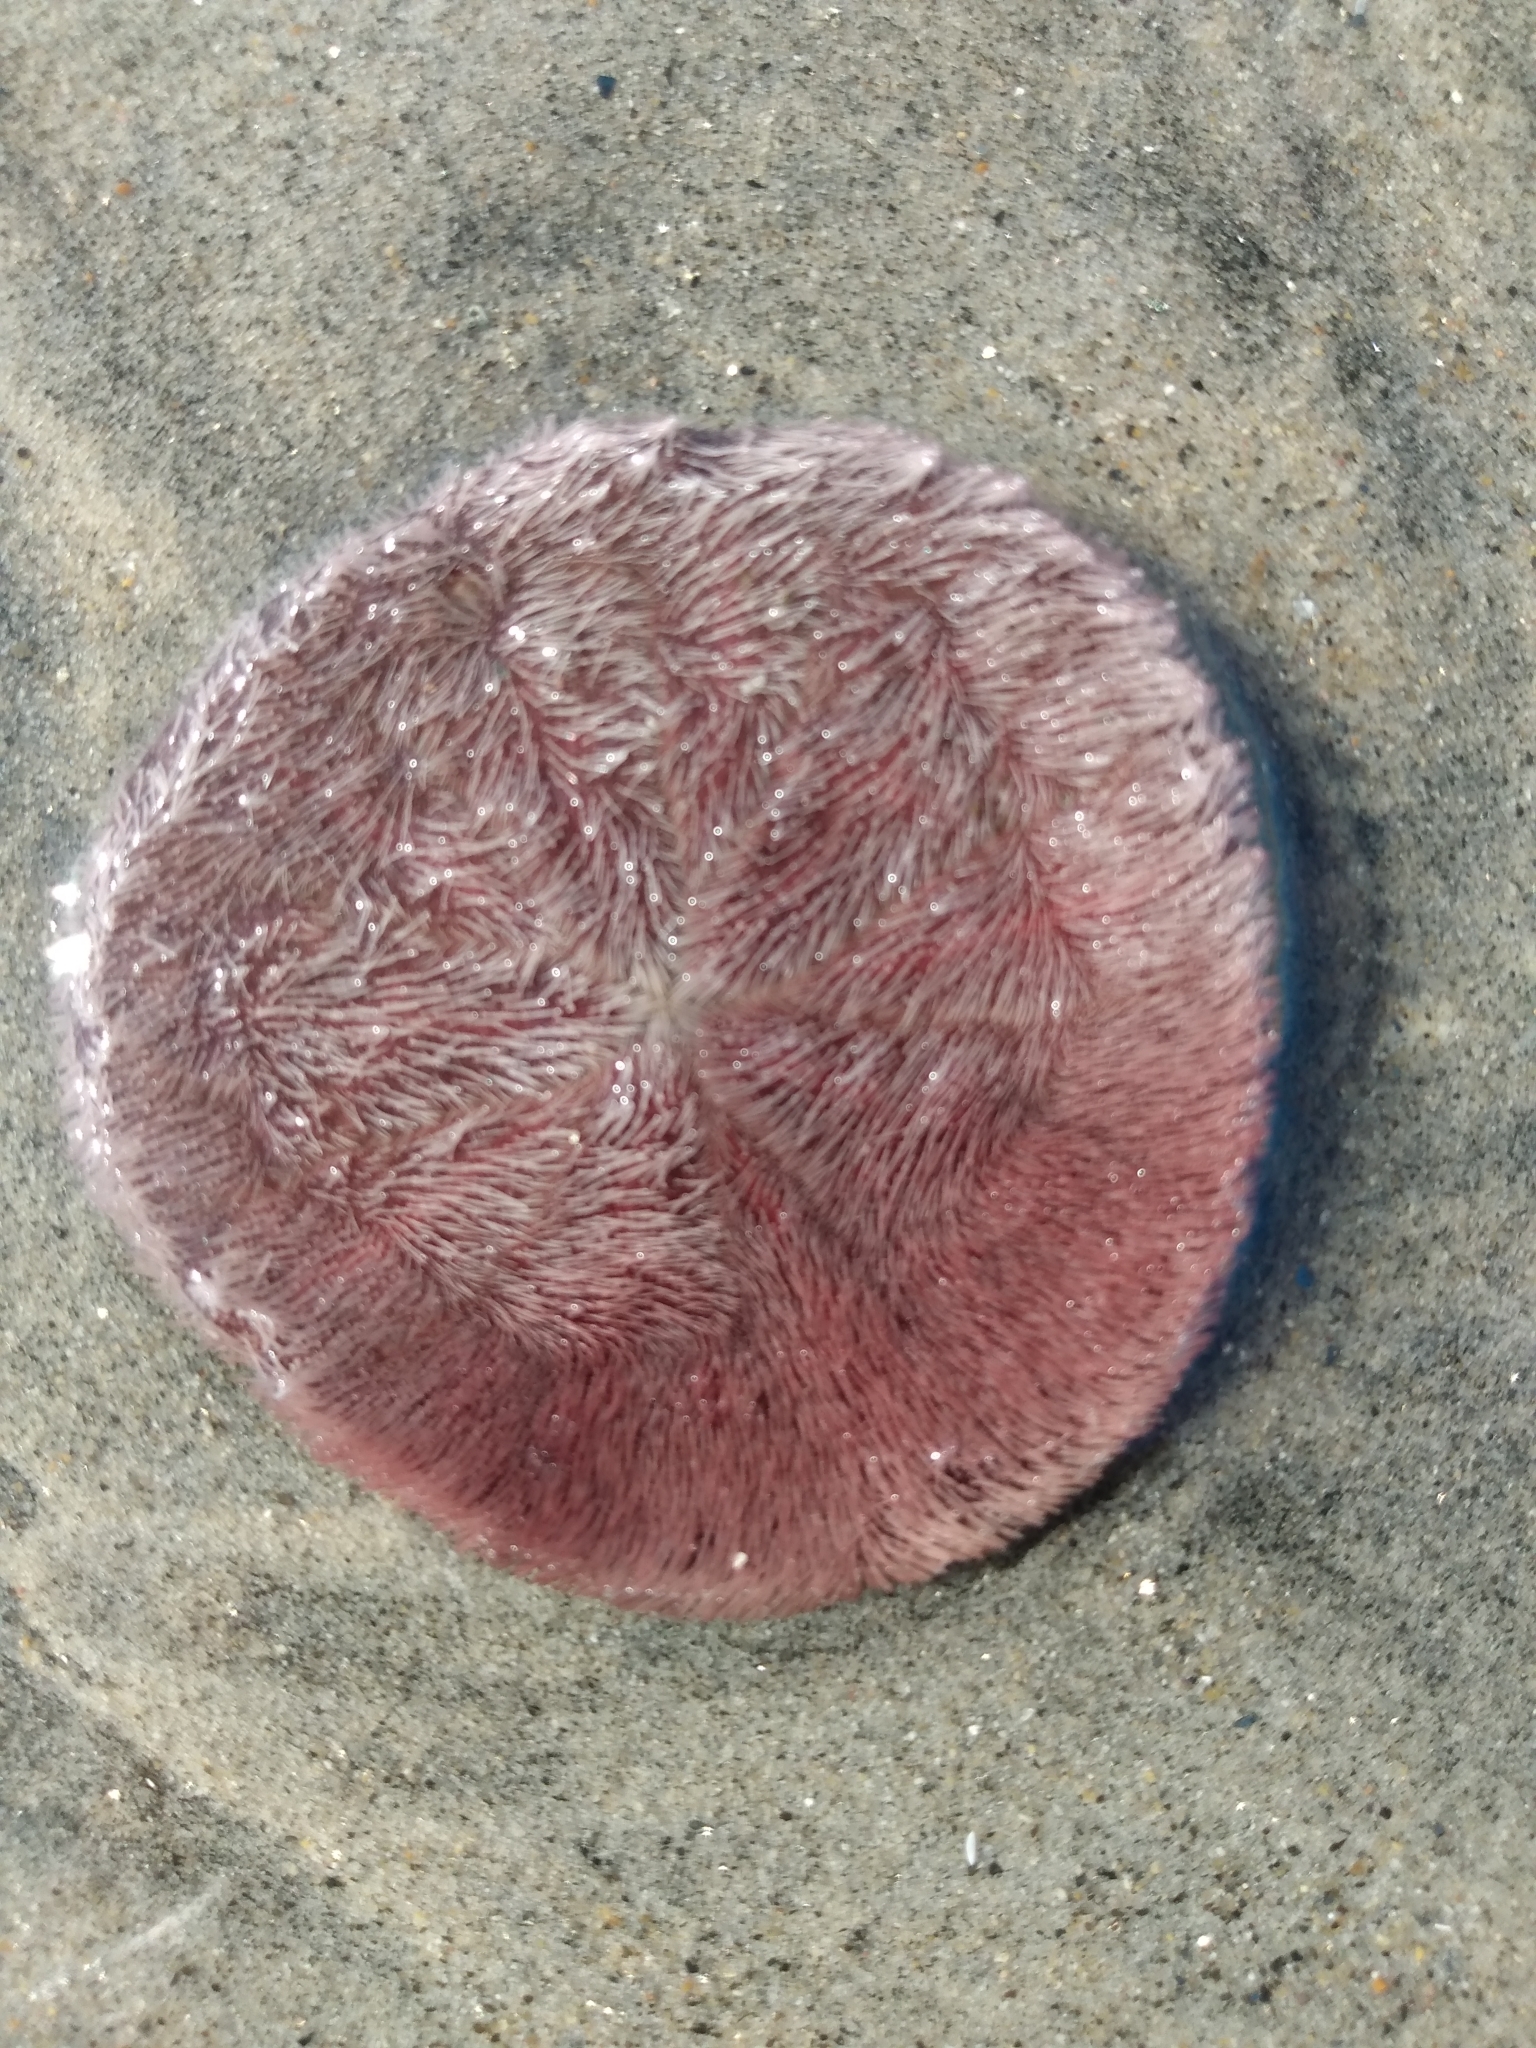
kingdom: Animalia
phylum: Echinodermata
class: Echinoidea
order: Echinolampadacea
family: Dendrasteridae
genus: Dendraster
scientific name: Dendraster excentricus
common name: Eccentric sand dollar sea urchin
